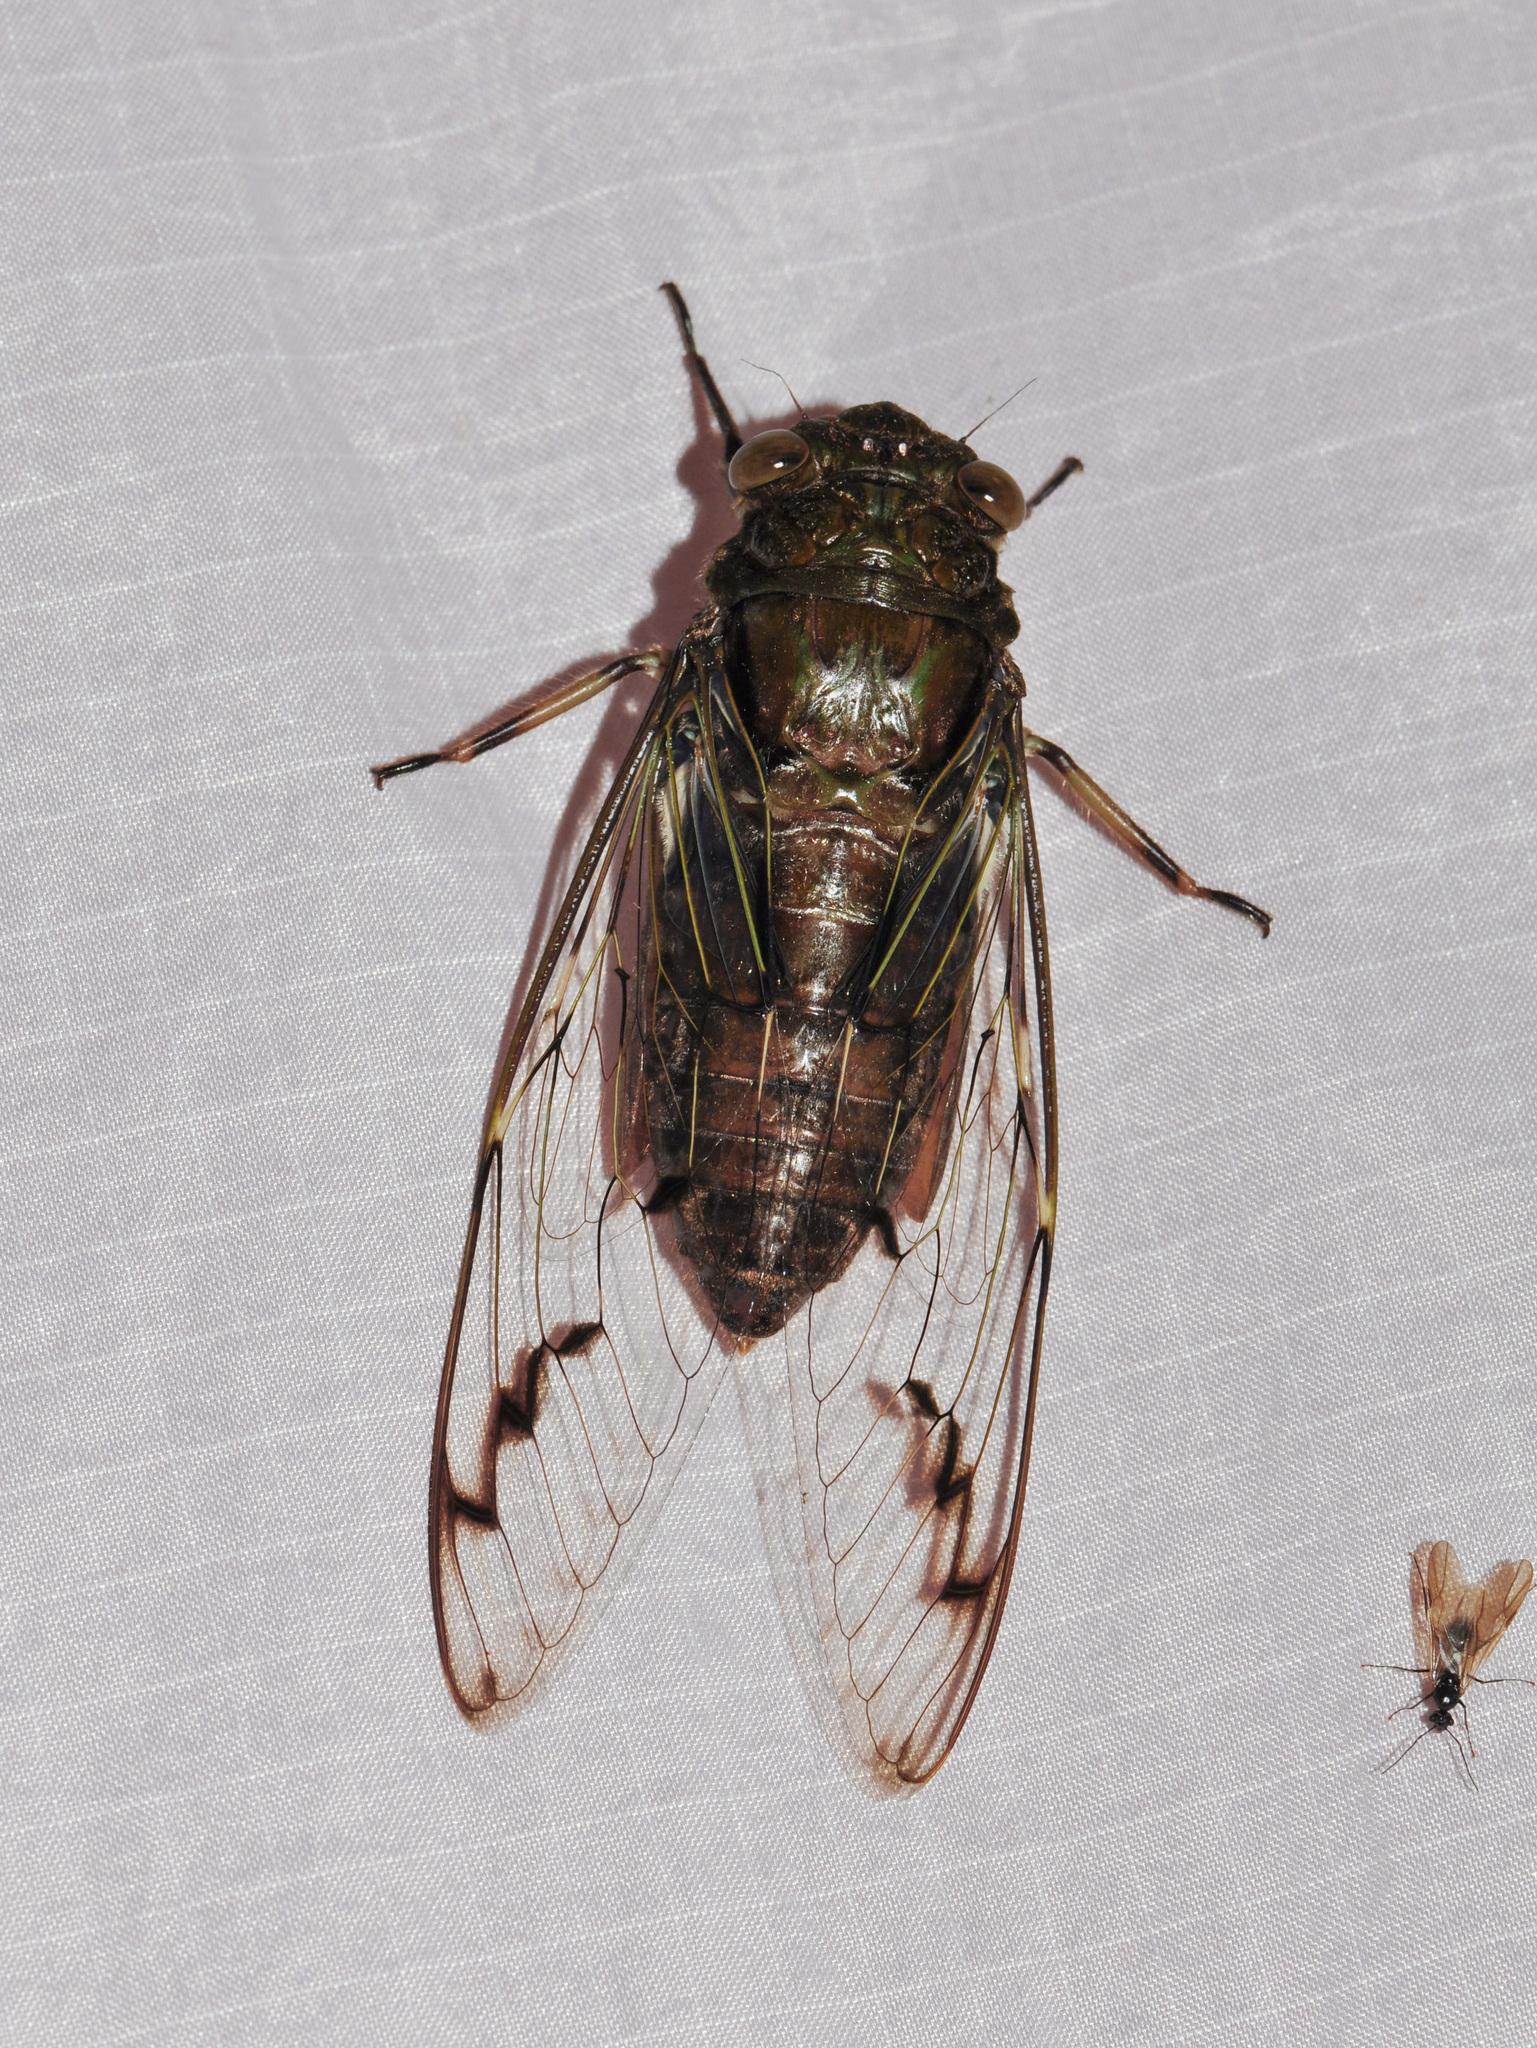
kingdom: Animalia
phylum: Arthropoda
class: Insecta
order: Hemiptera
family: Cicadidae
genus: Champaka
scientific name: Champaka spinosa
